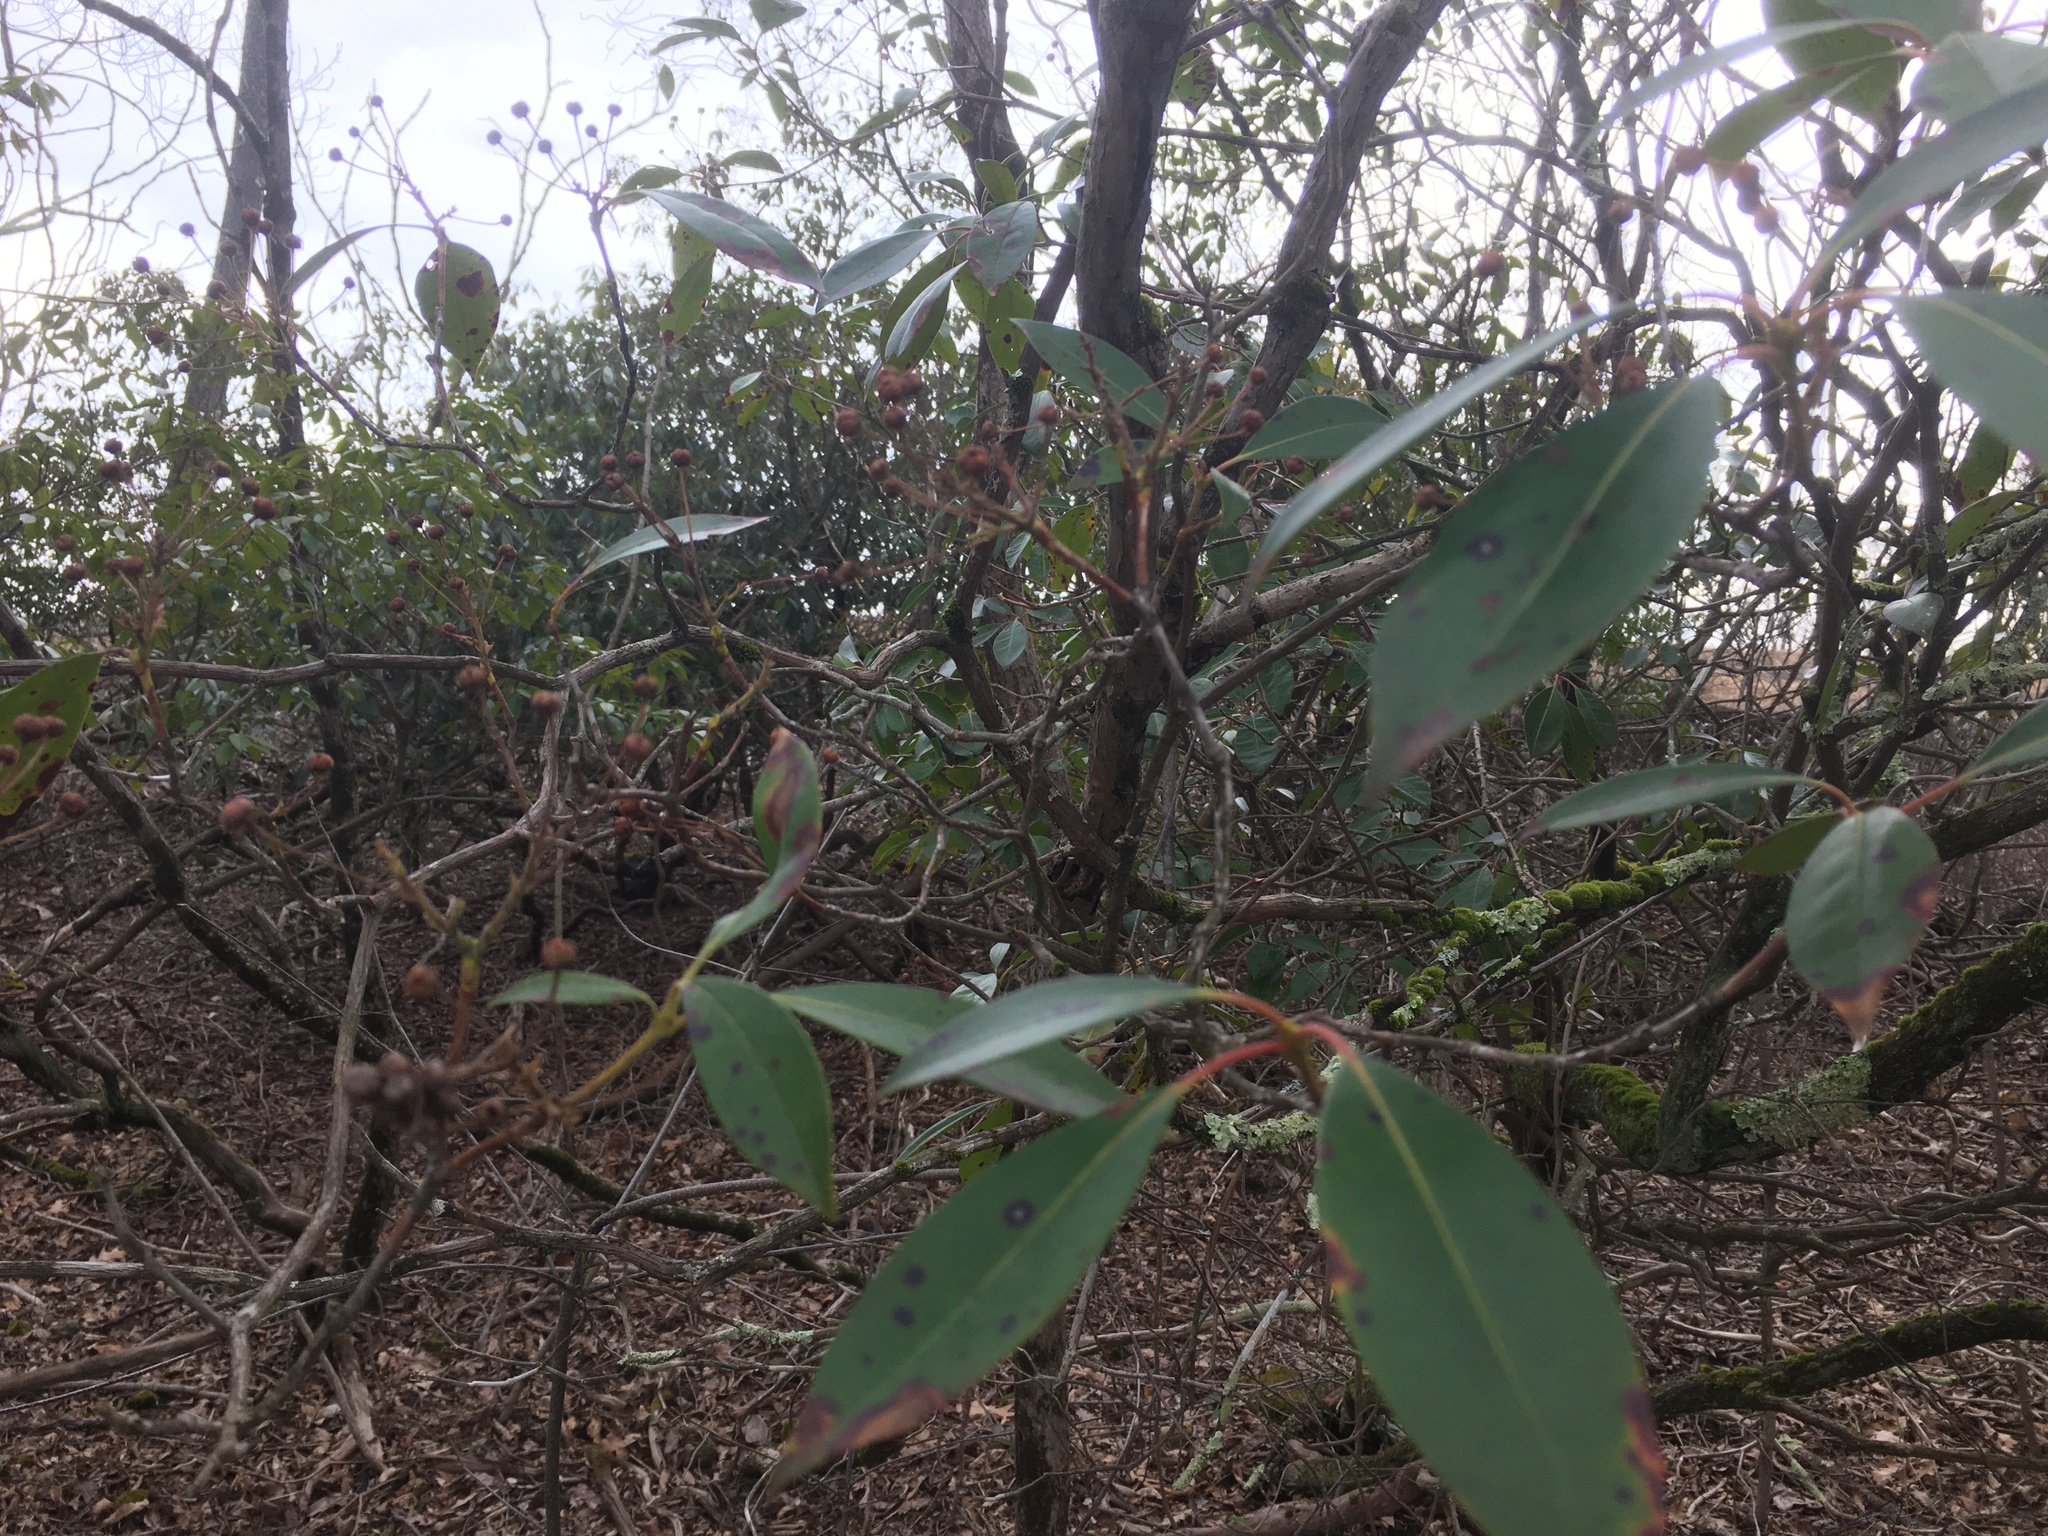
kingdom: Plantae
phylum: Tracheophyta
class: Magnoliopsida
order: Ericales
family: Ericaceae
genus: Kalmia
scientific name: Kalmia latifolia
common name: Mountain-laurel
